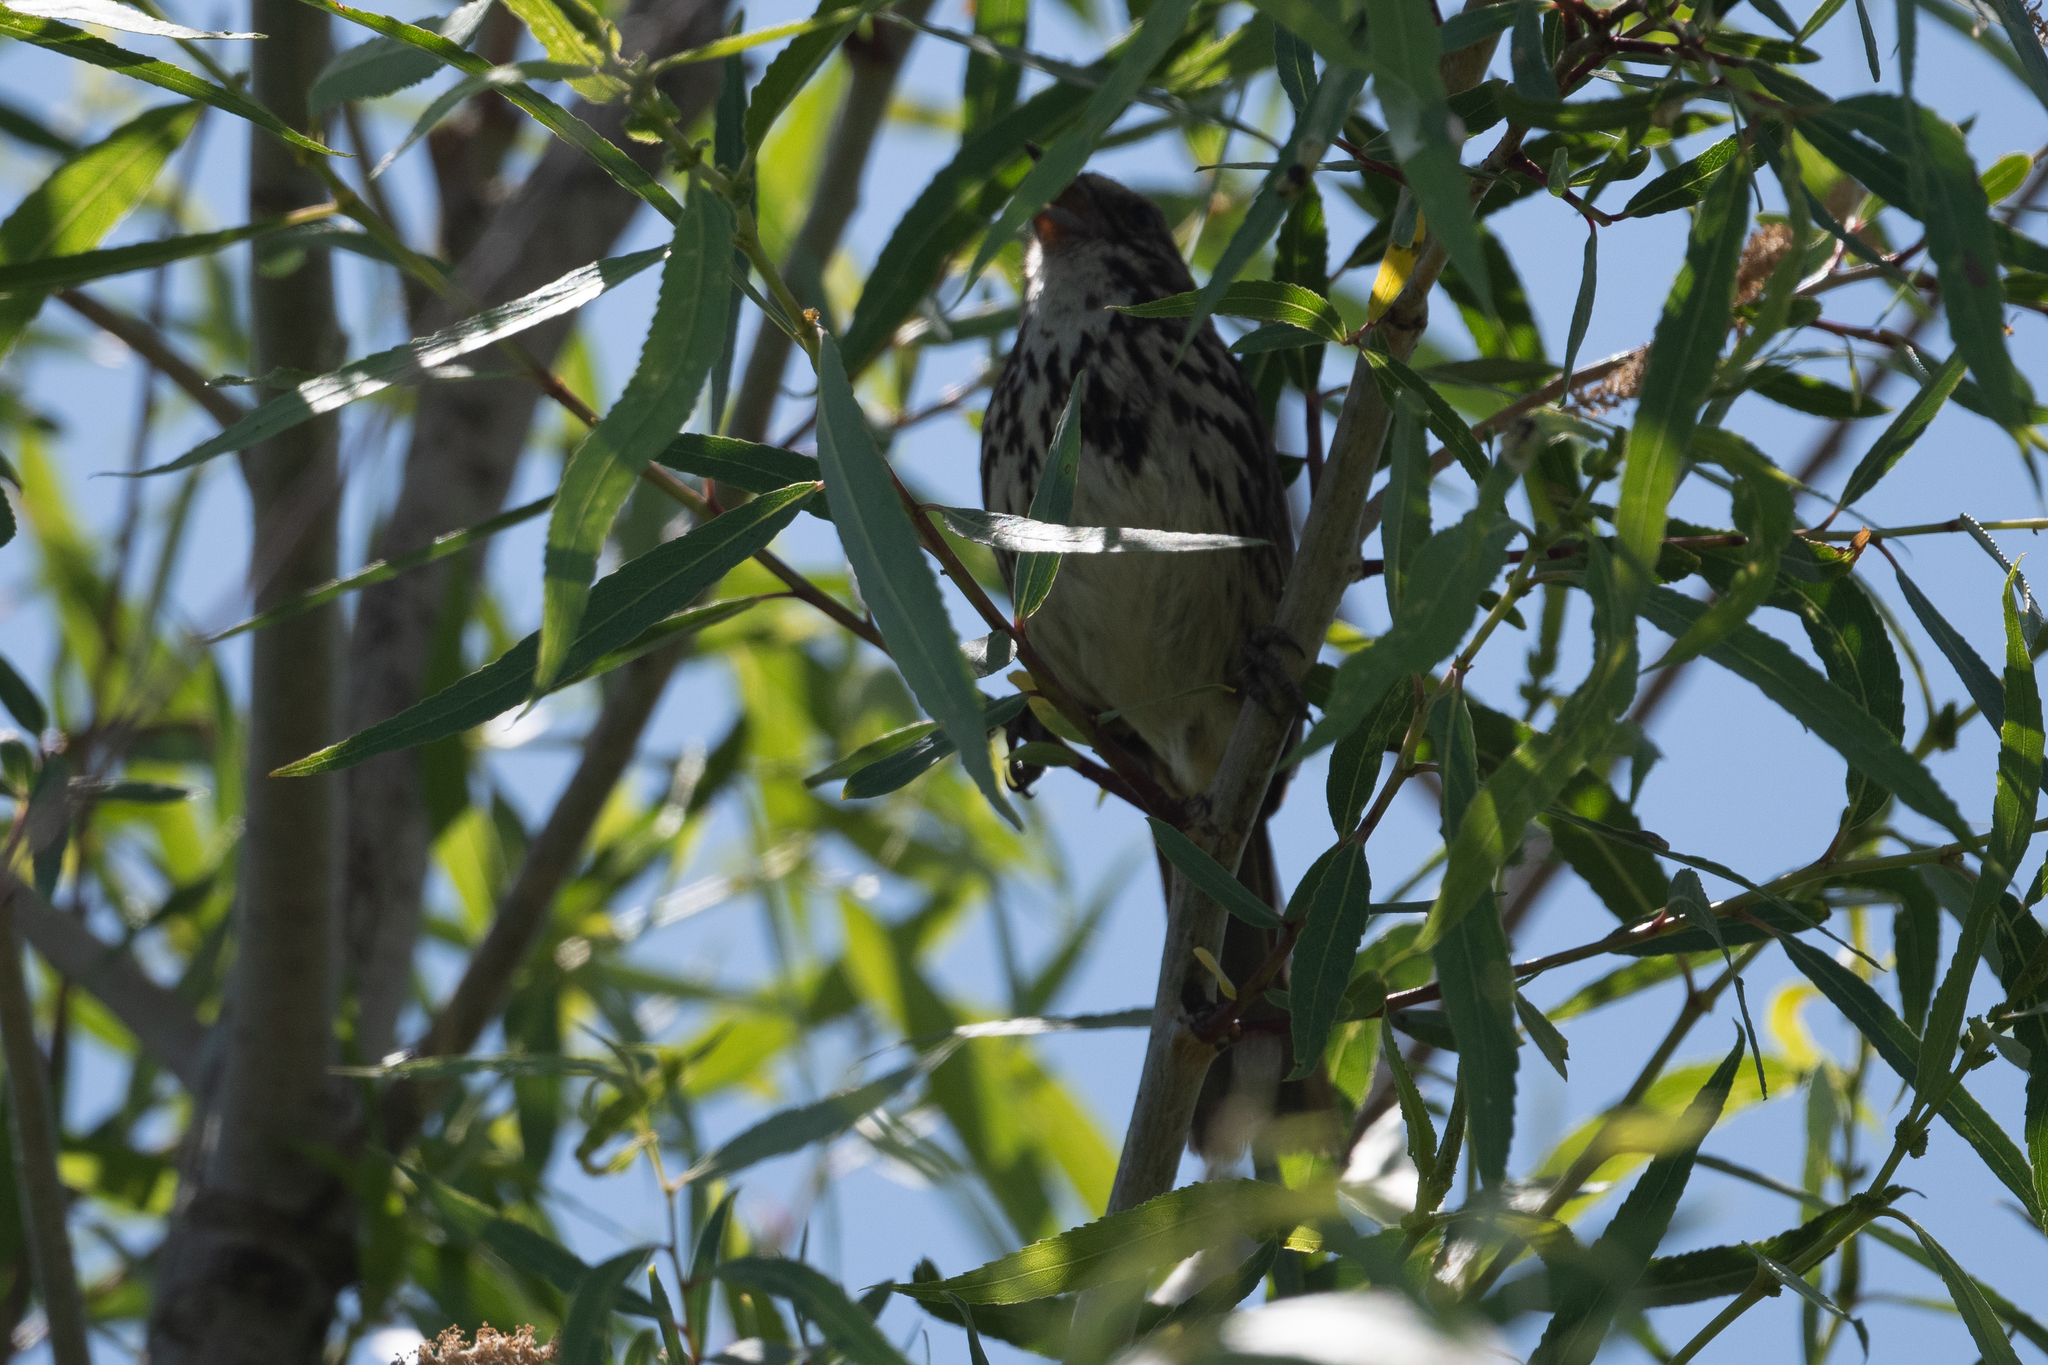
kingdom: Animalia
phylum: Chordata
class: Aves
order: Passeriformes
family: Passerellidae
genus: Melospiza
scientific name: Melospiza melodia
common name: Song sparrow
